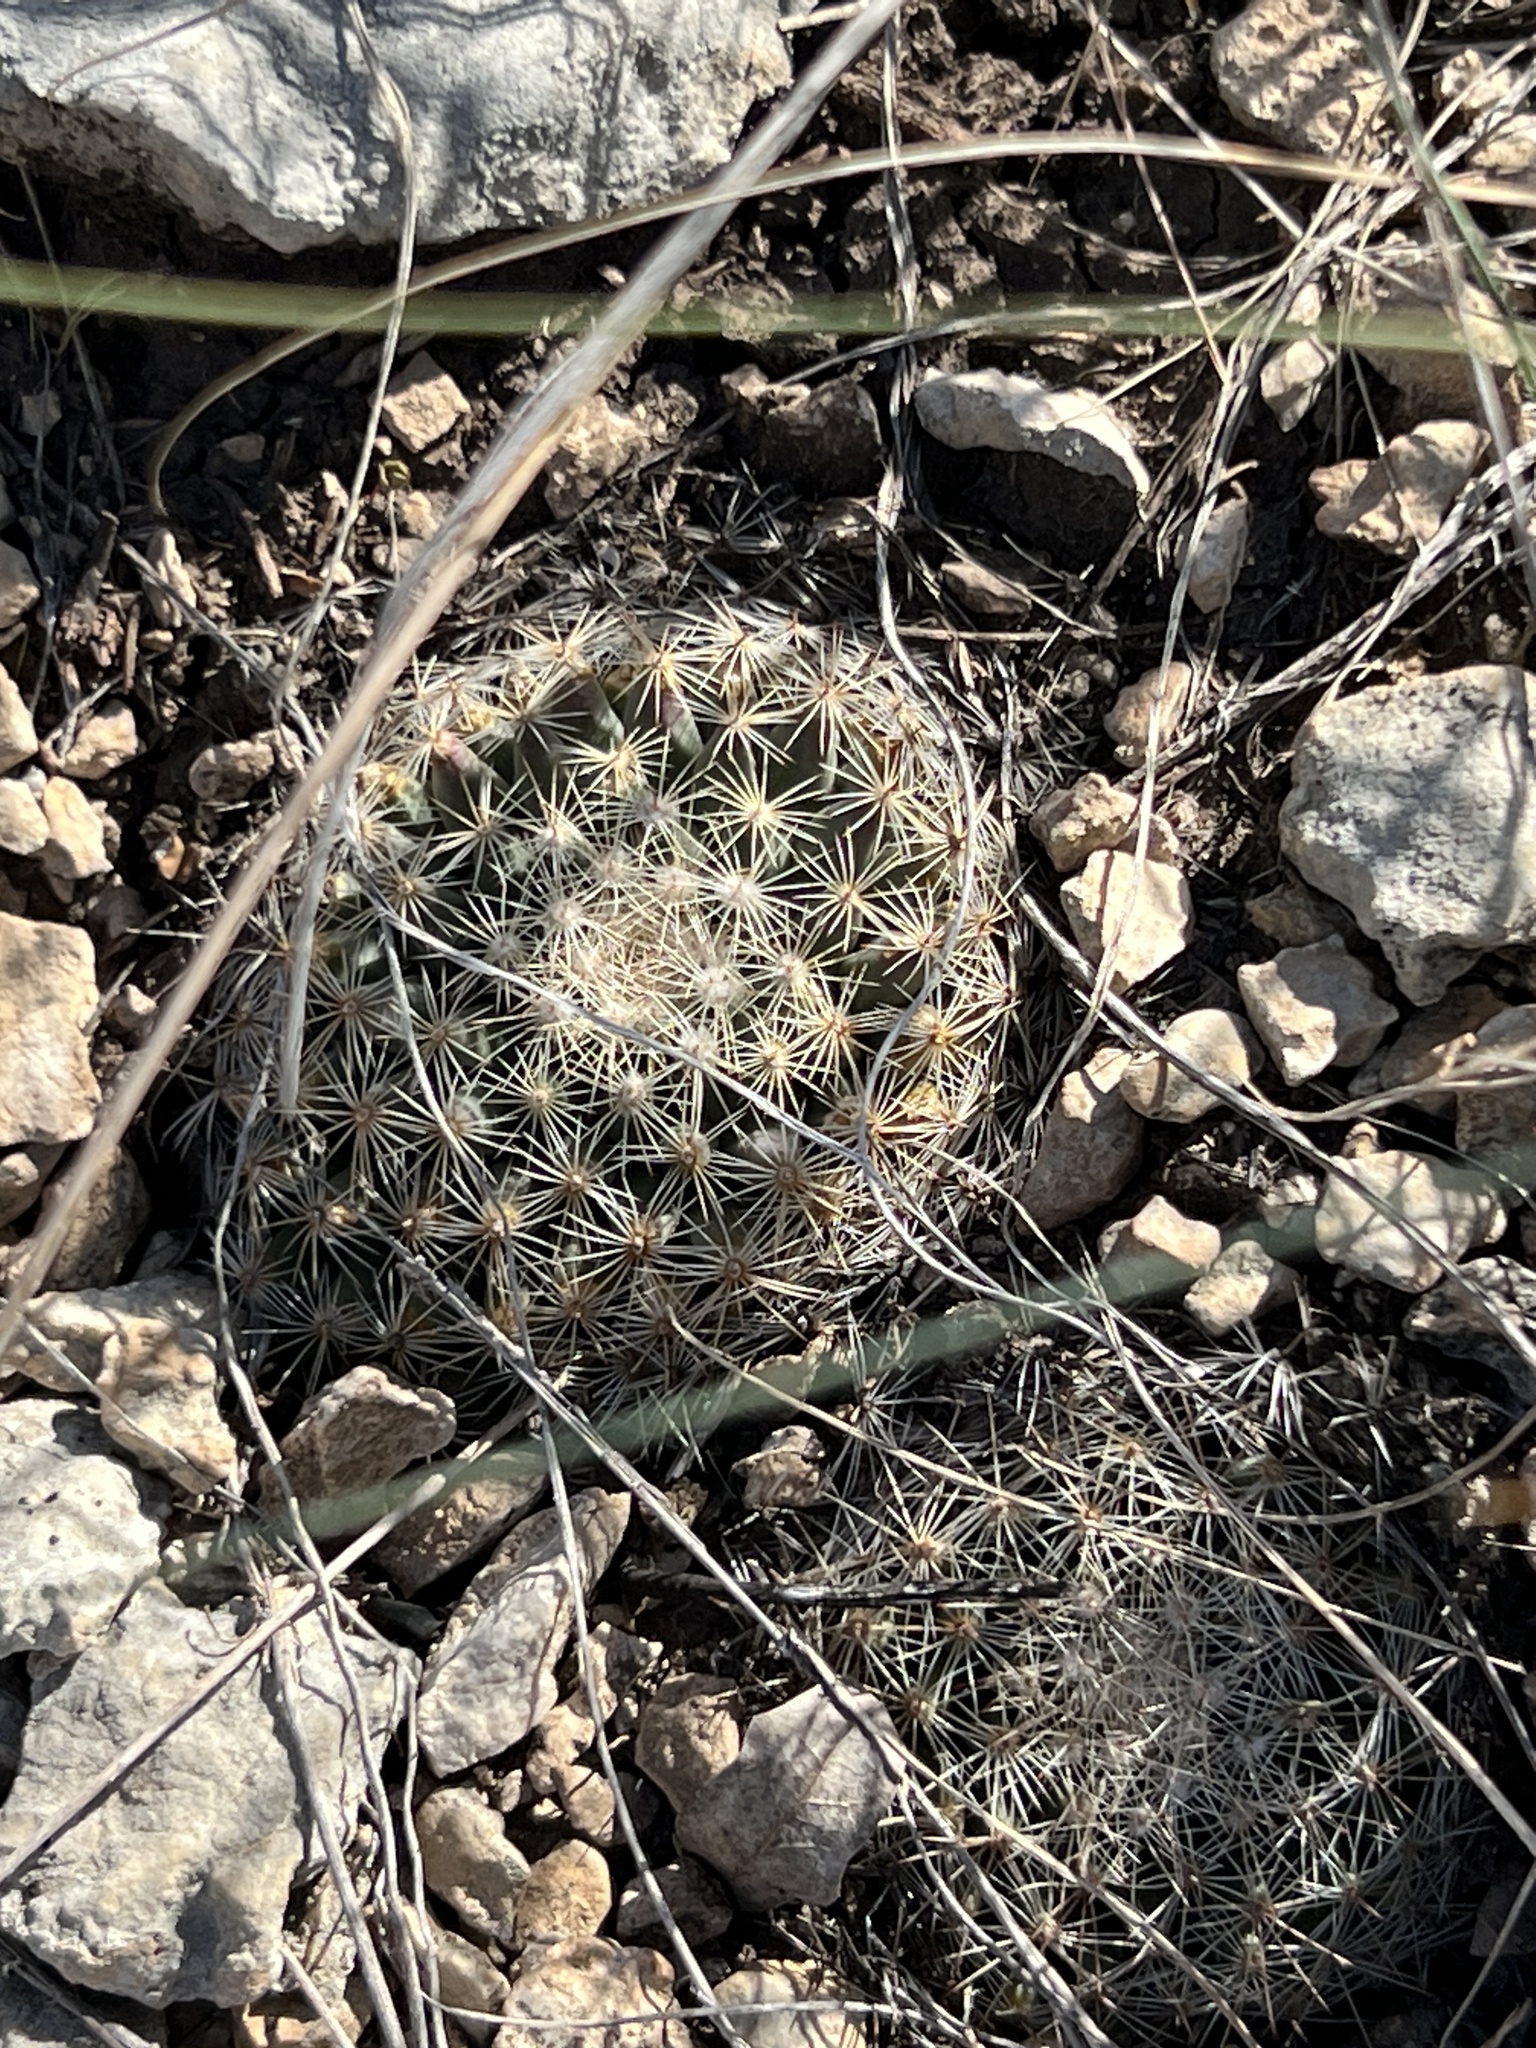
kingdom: Plantae
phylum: Tracheophyta
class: Magnoliopsida
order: Caryophyllales
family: Cactaceae
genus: Mammillaria
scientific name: Mammillaria heyderi
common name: Little nipple cactus
